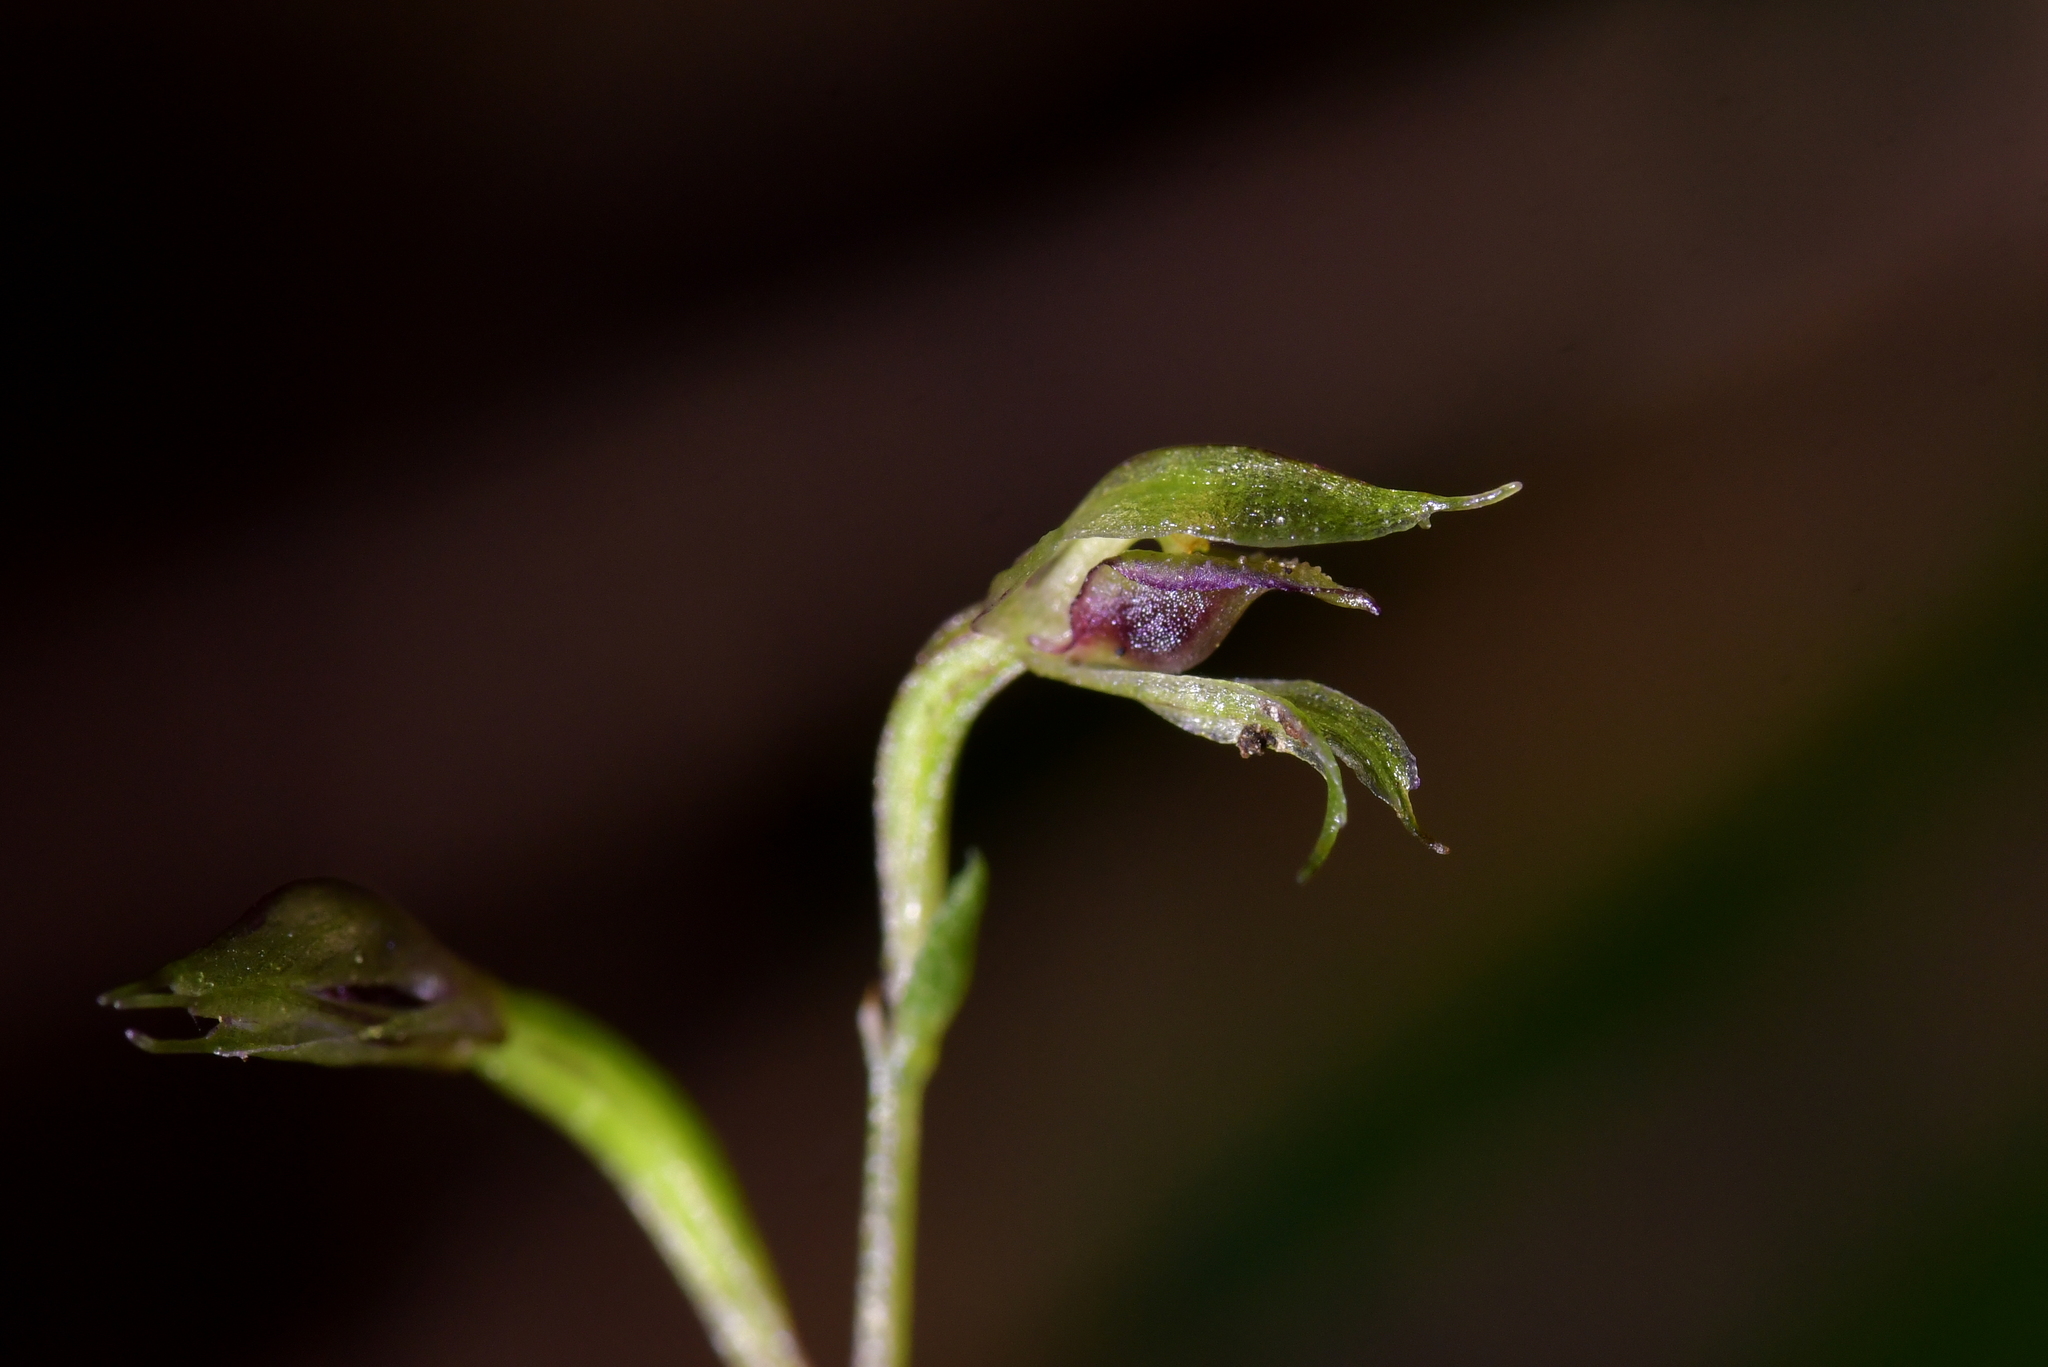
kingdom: Plantae
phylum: Tracheophyta
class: Liliopsida
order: Asparagales
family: Orchidaceae
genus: Acianthus
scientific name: Acianthus sinclairii
